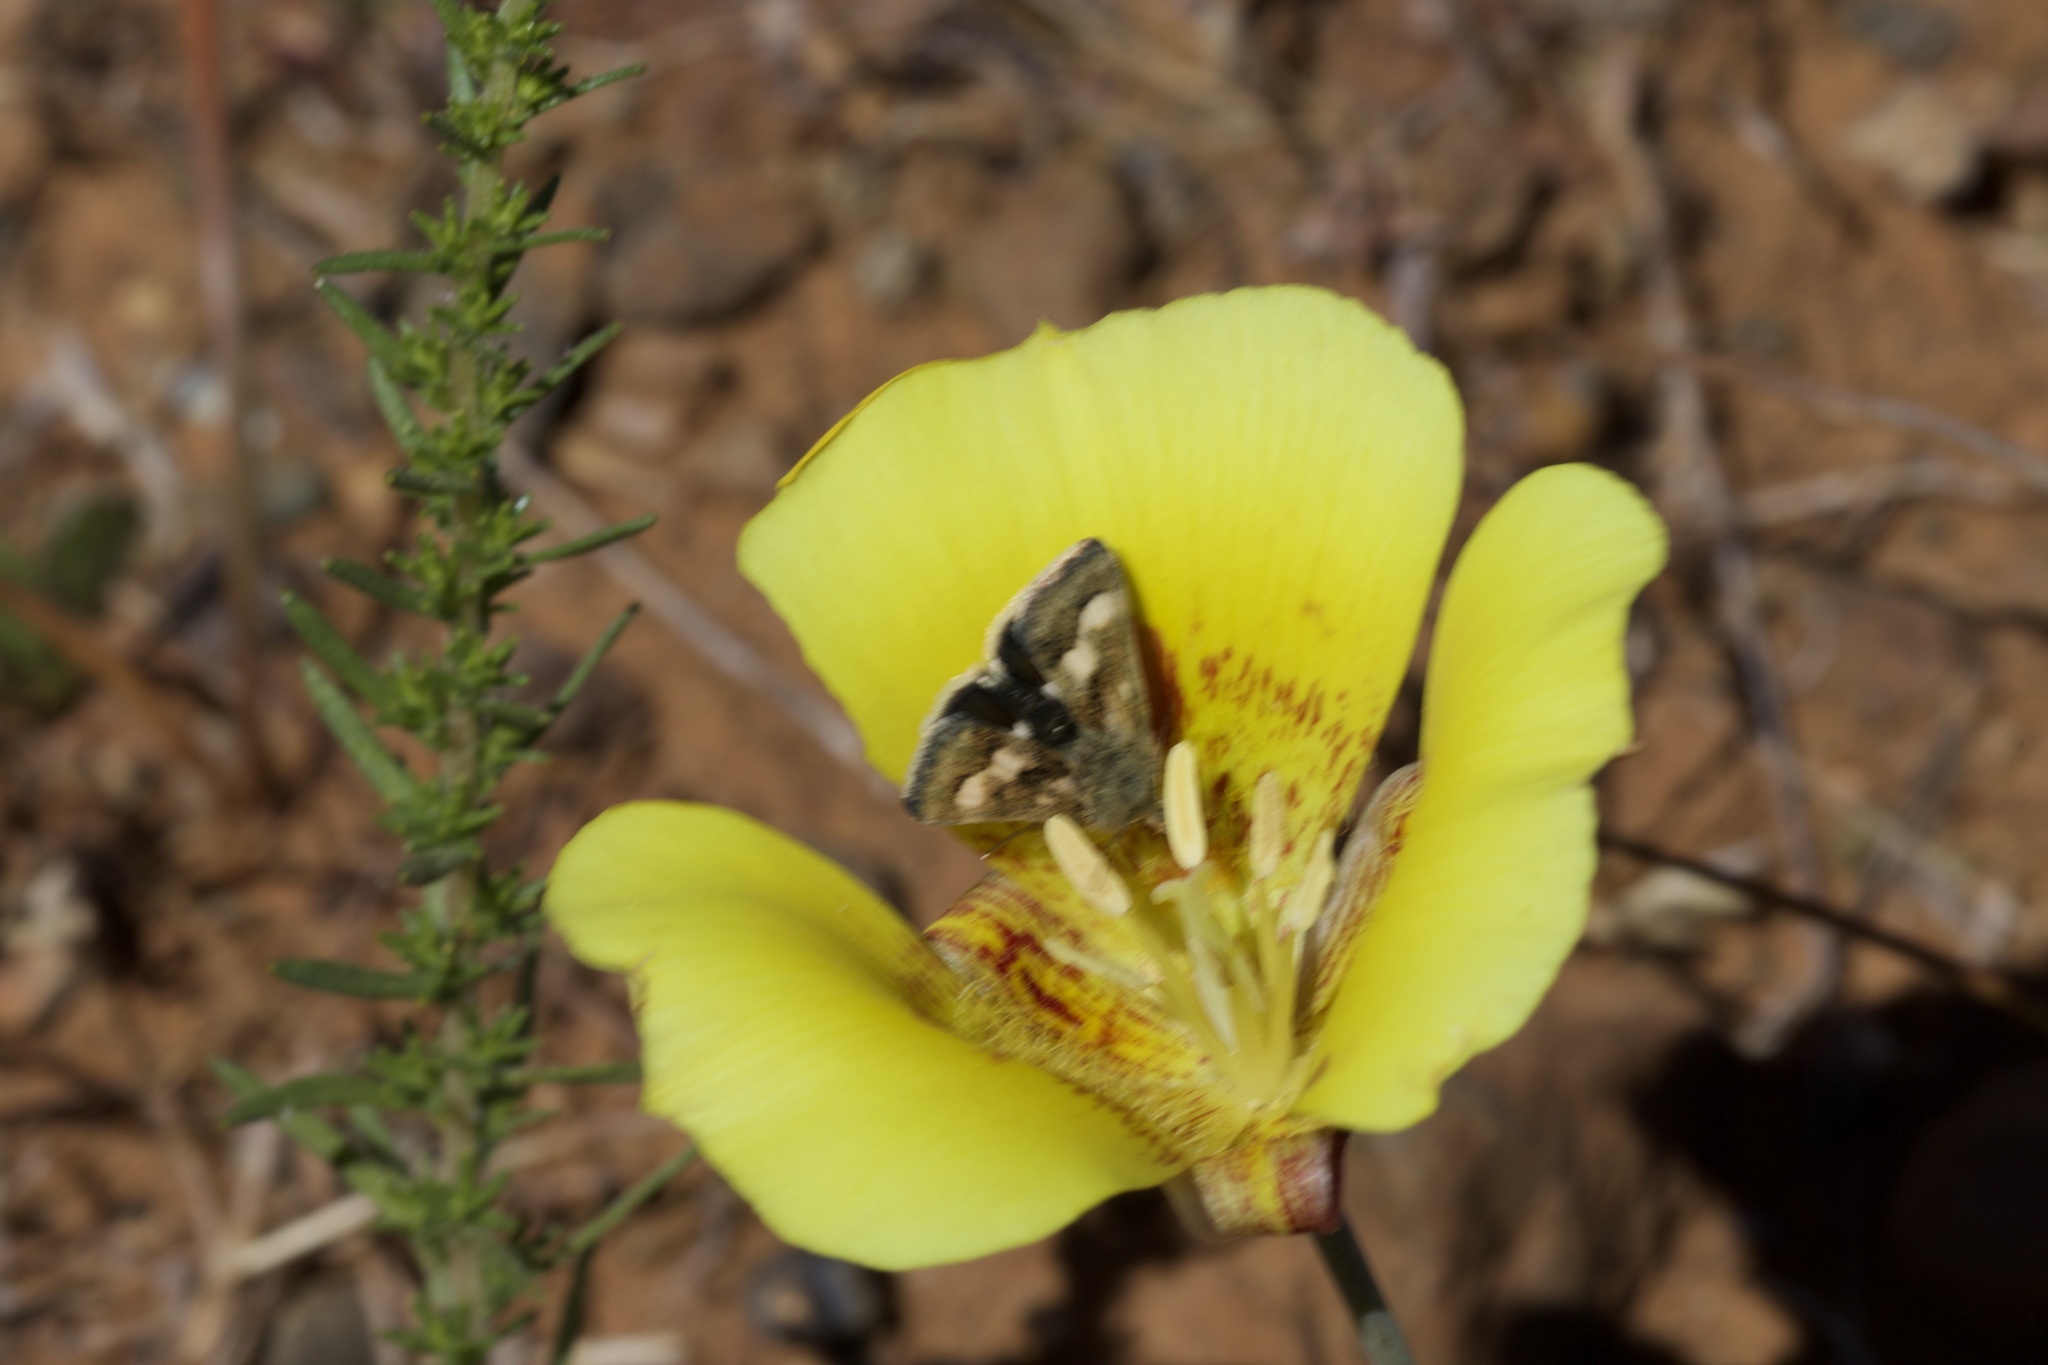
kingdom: Animalia
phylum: Arthropoda
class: Insecta
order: Lepidoptera
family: Noctuidae
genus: Heliothodes
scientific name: Heliothodes diminutiva
